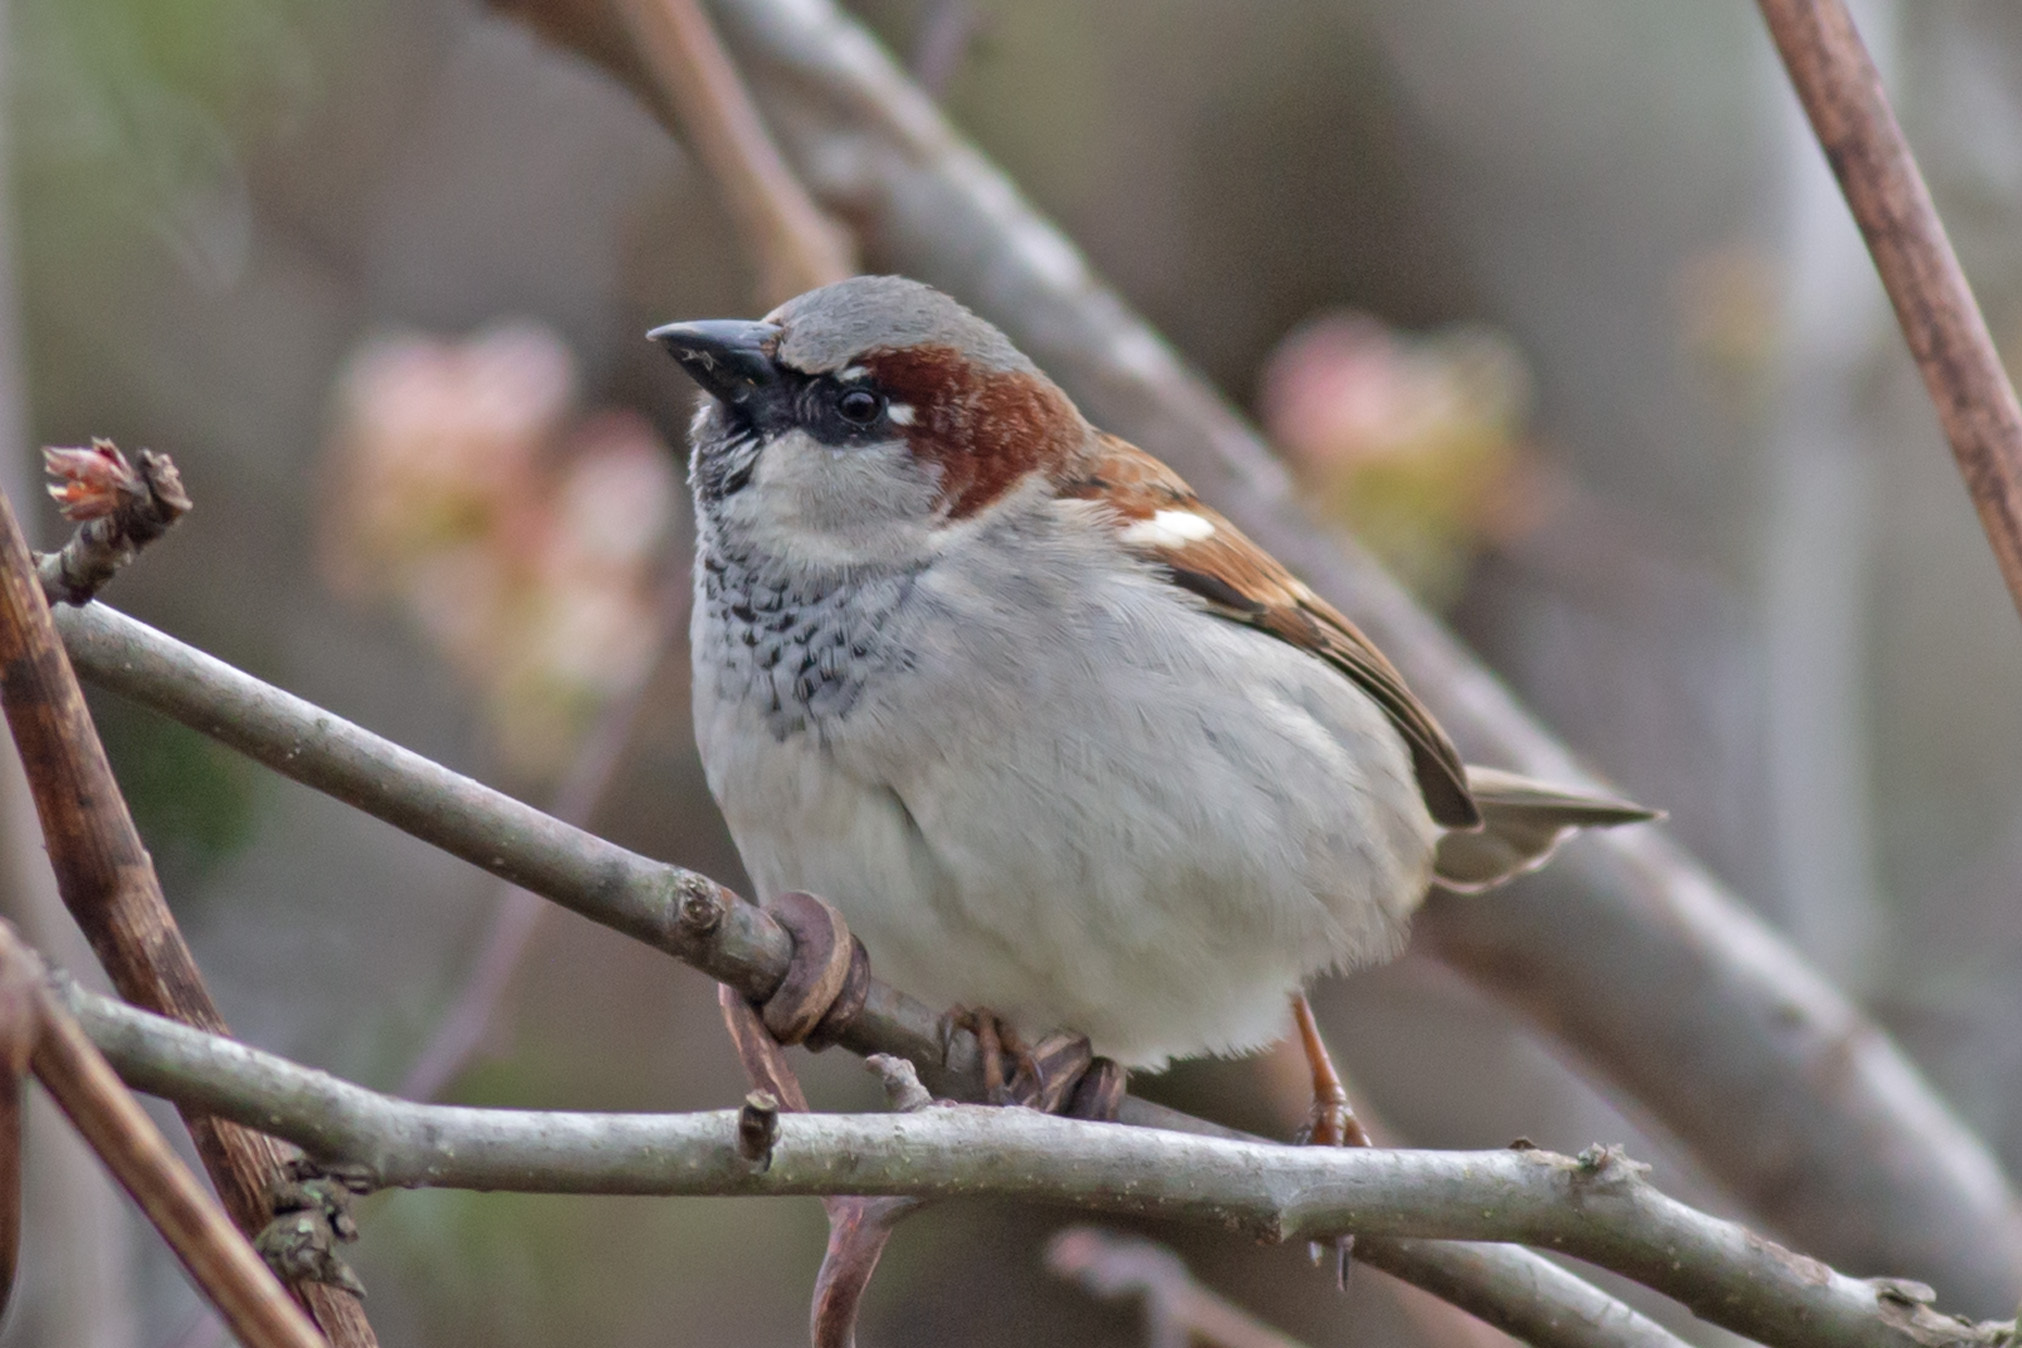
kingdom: Animalia
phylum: Chordata
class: Aves
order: Passeriformes
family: Passeridae
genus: Passer
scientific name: Passer domesticus
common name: House sparrow
